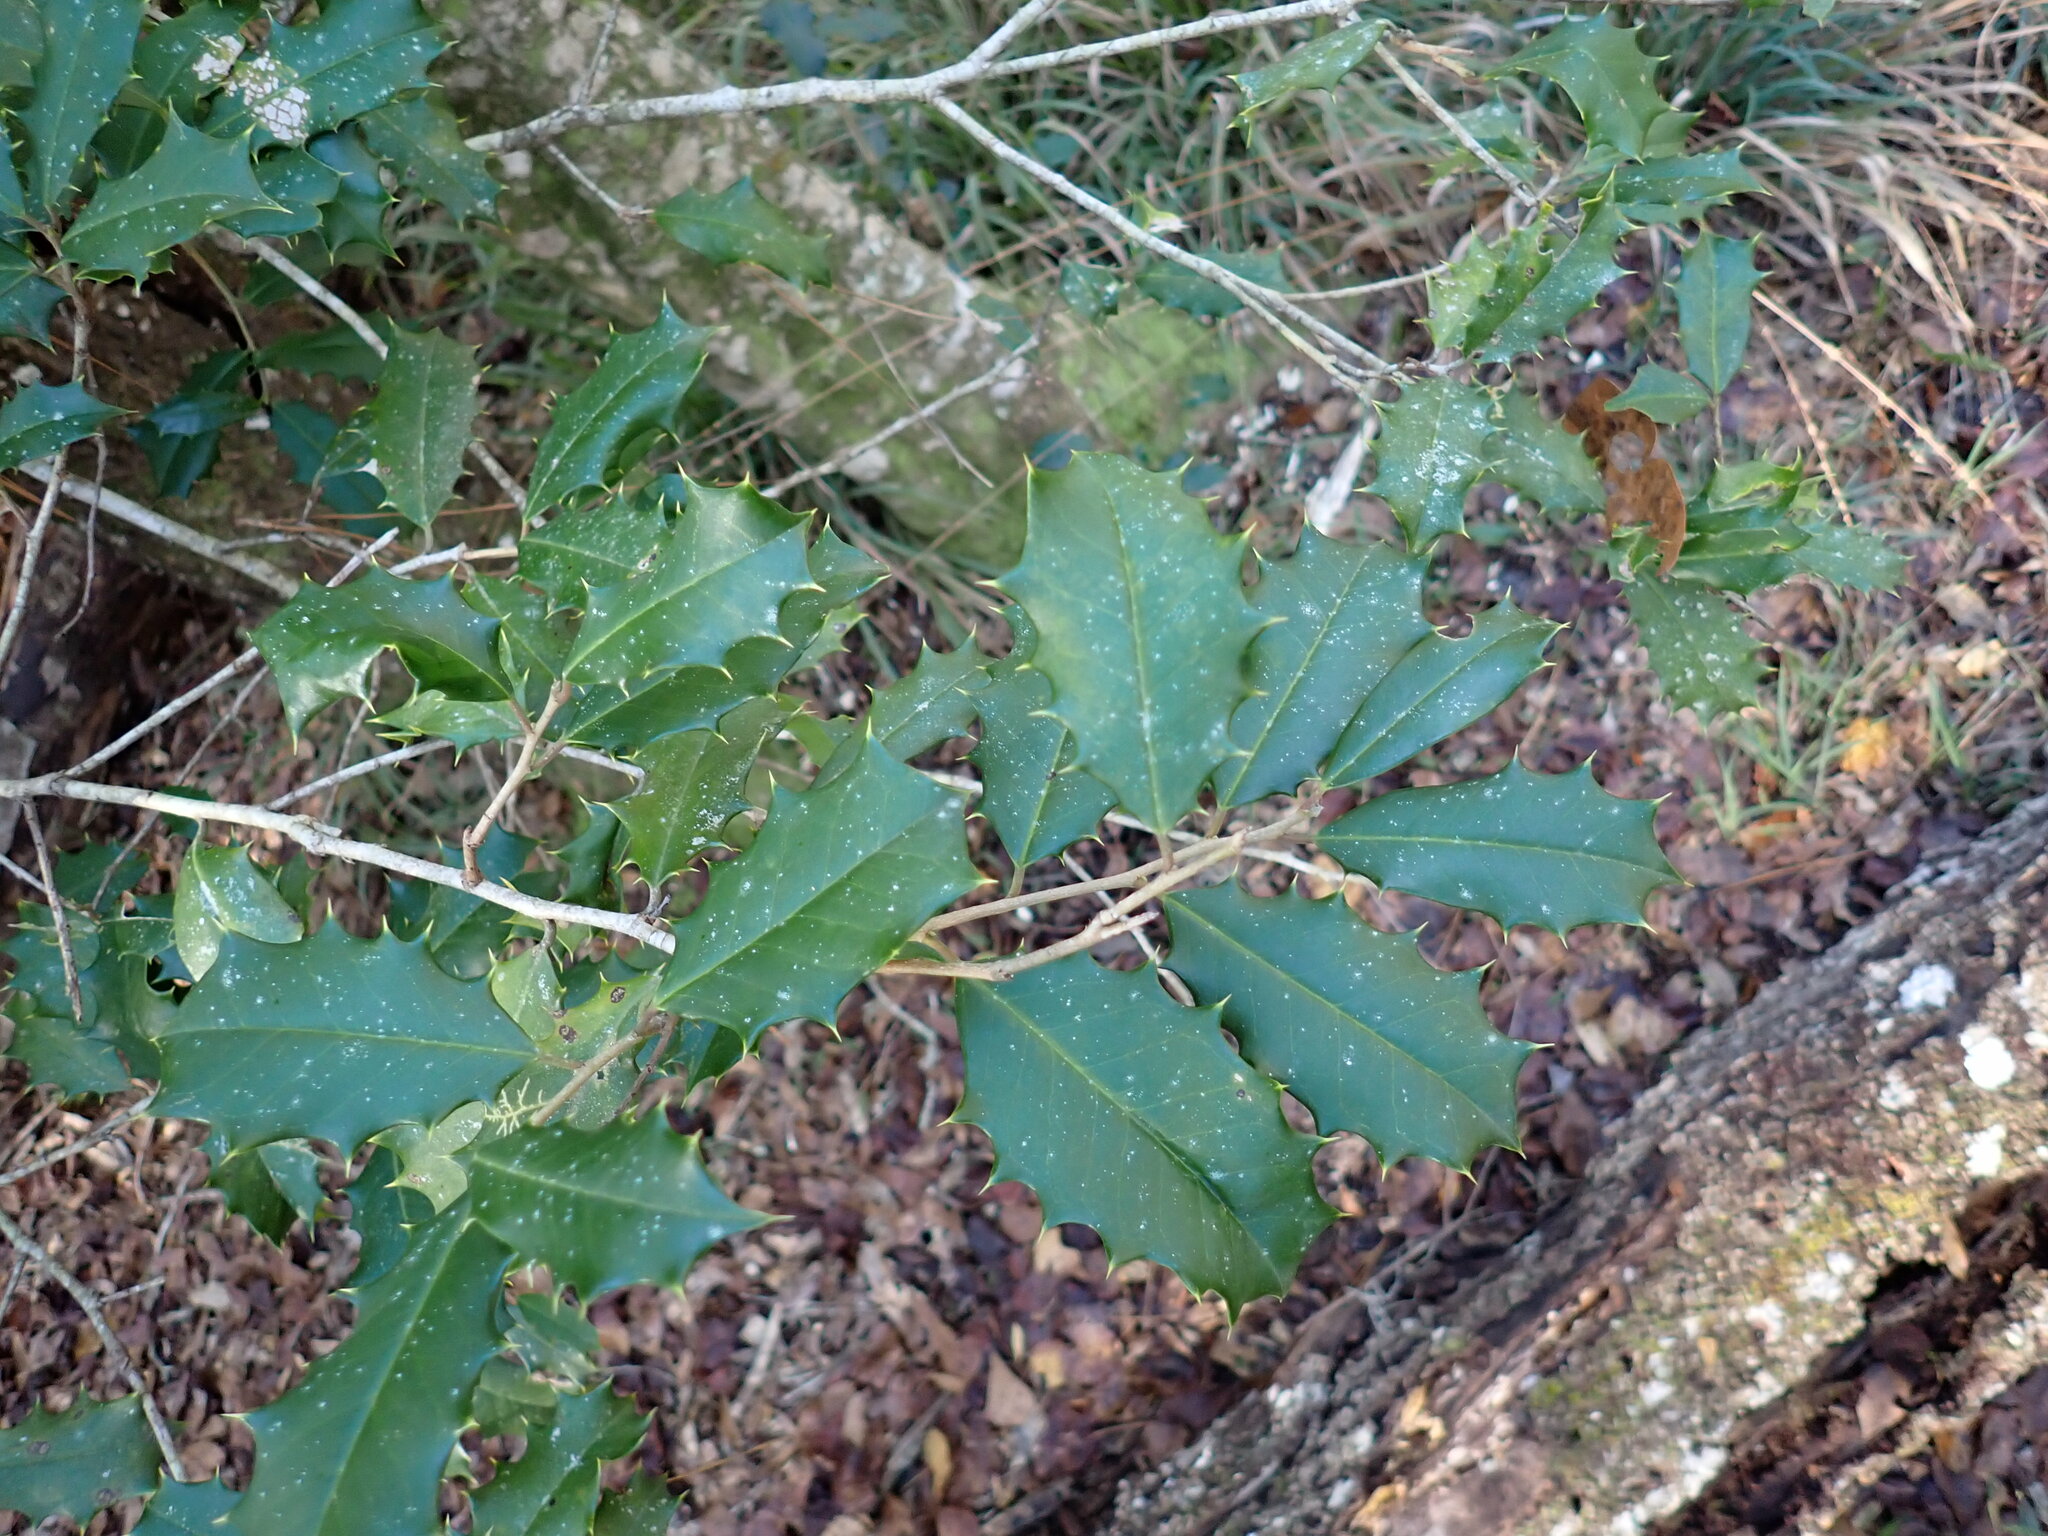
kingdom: Plantae
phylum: Tracheophyta
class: Magnoliopsida
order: Aquifoliales
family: Aquifoliaceae
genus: Ilex
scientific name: Ilex opaca
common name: American holly
